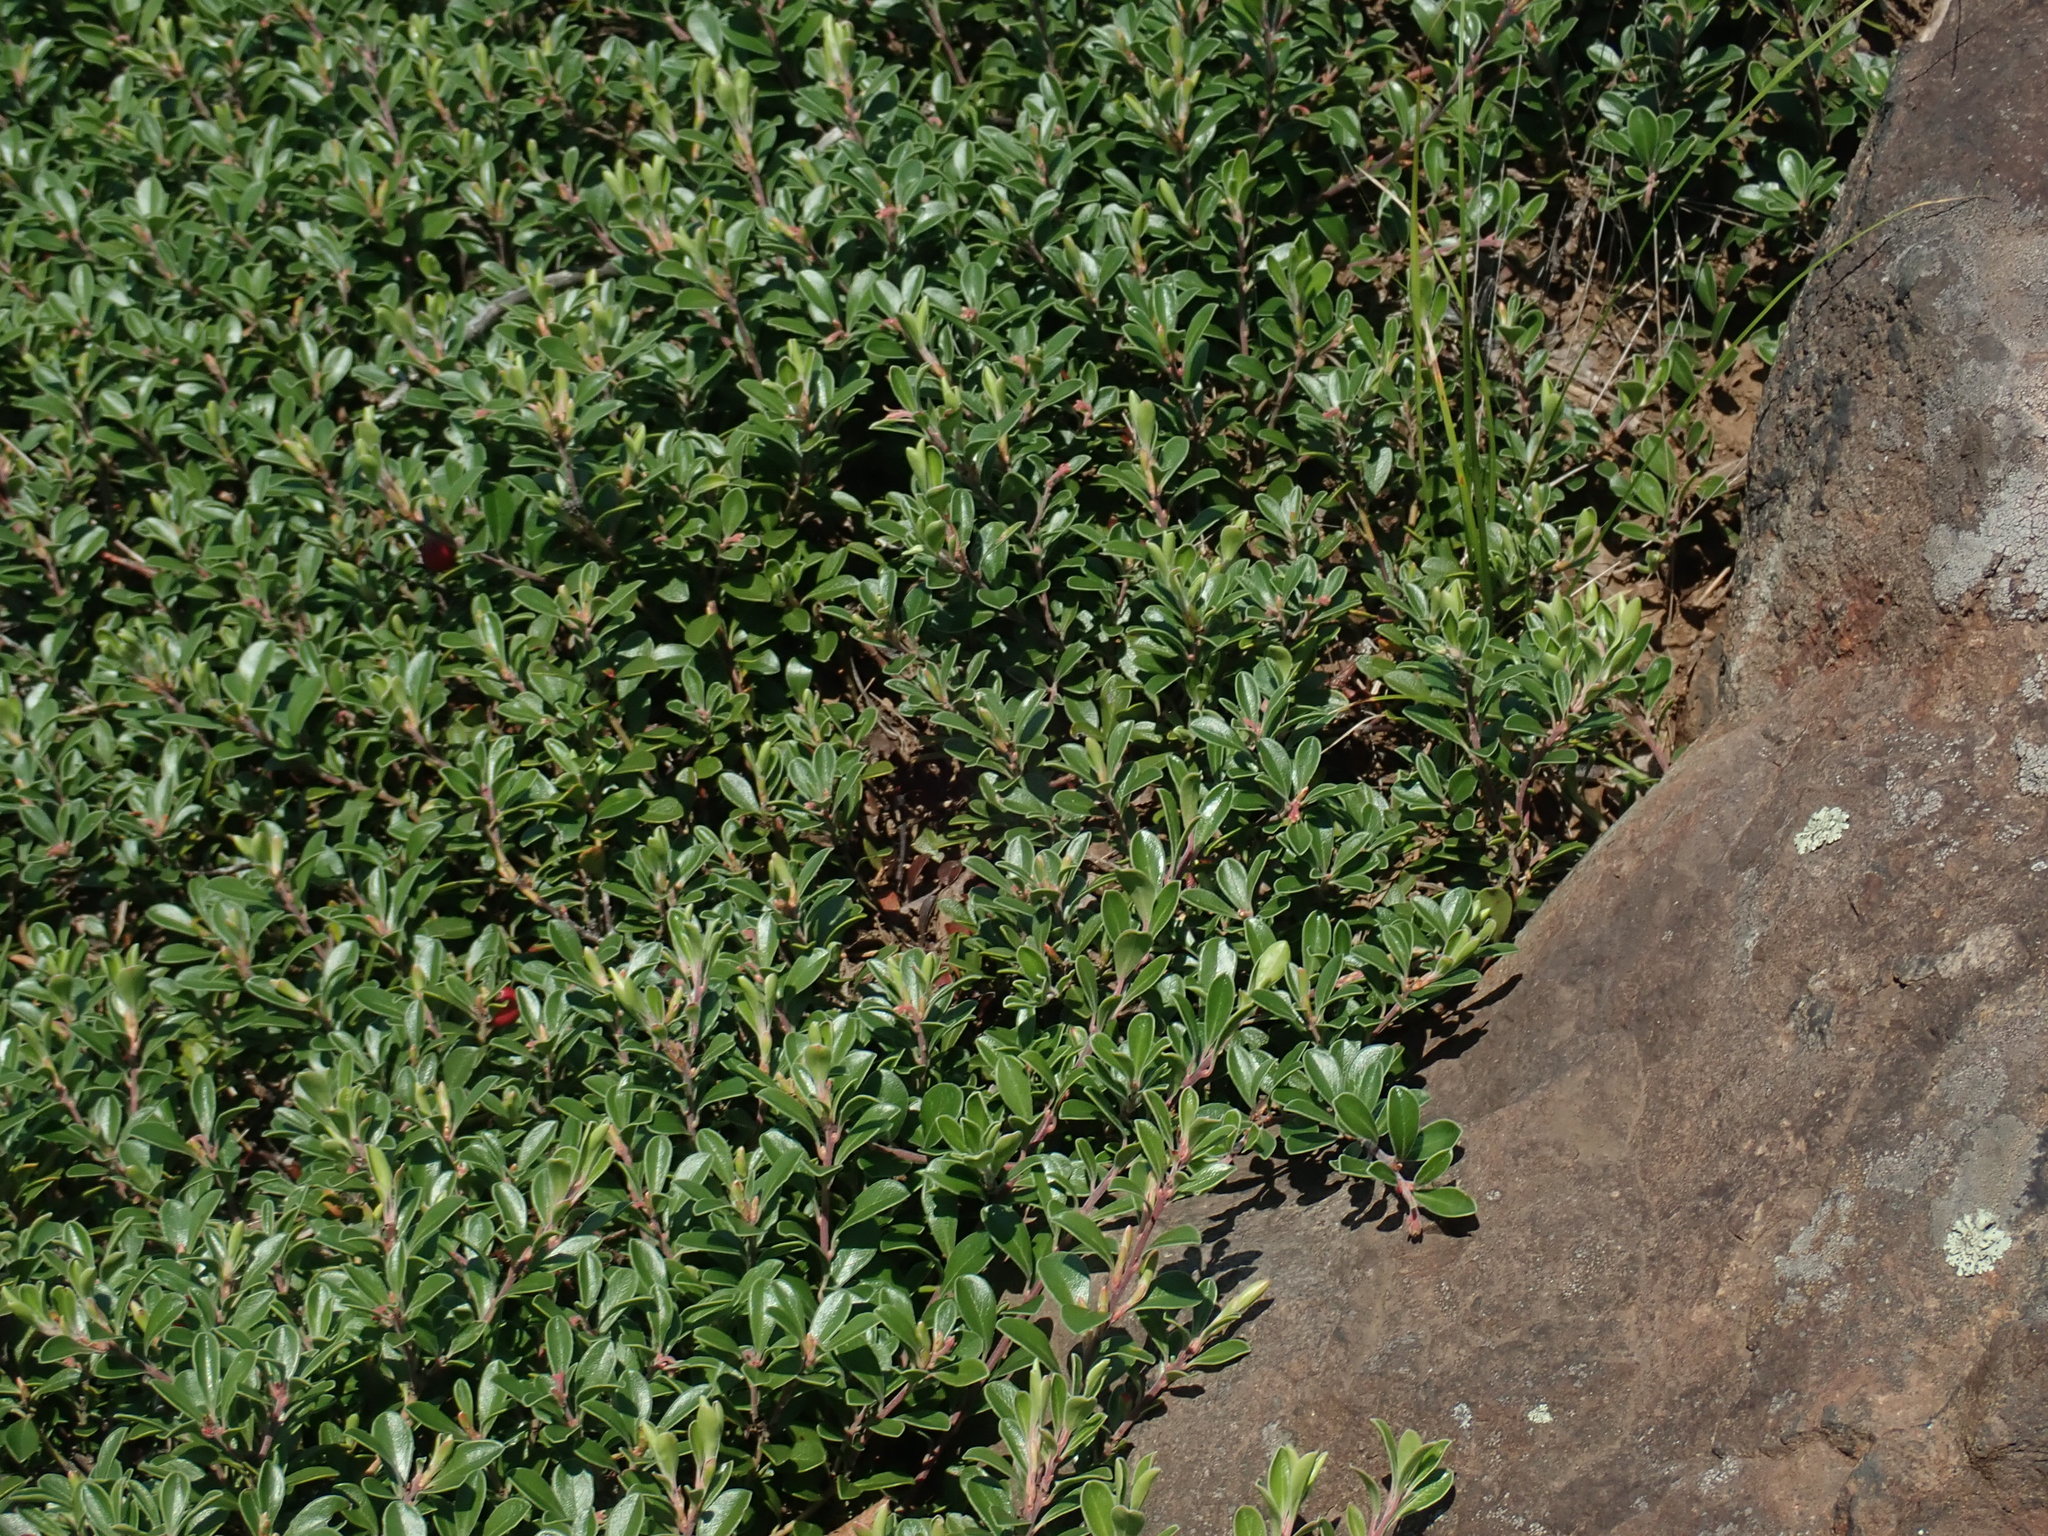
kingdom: Plantae
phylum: Tracheophyta
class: Magnoliopsida
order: Ericales
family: Ericaceae
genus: Arctostaphylos
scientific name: Arctostaphylos uva-ursi
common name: Bearberry
